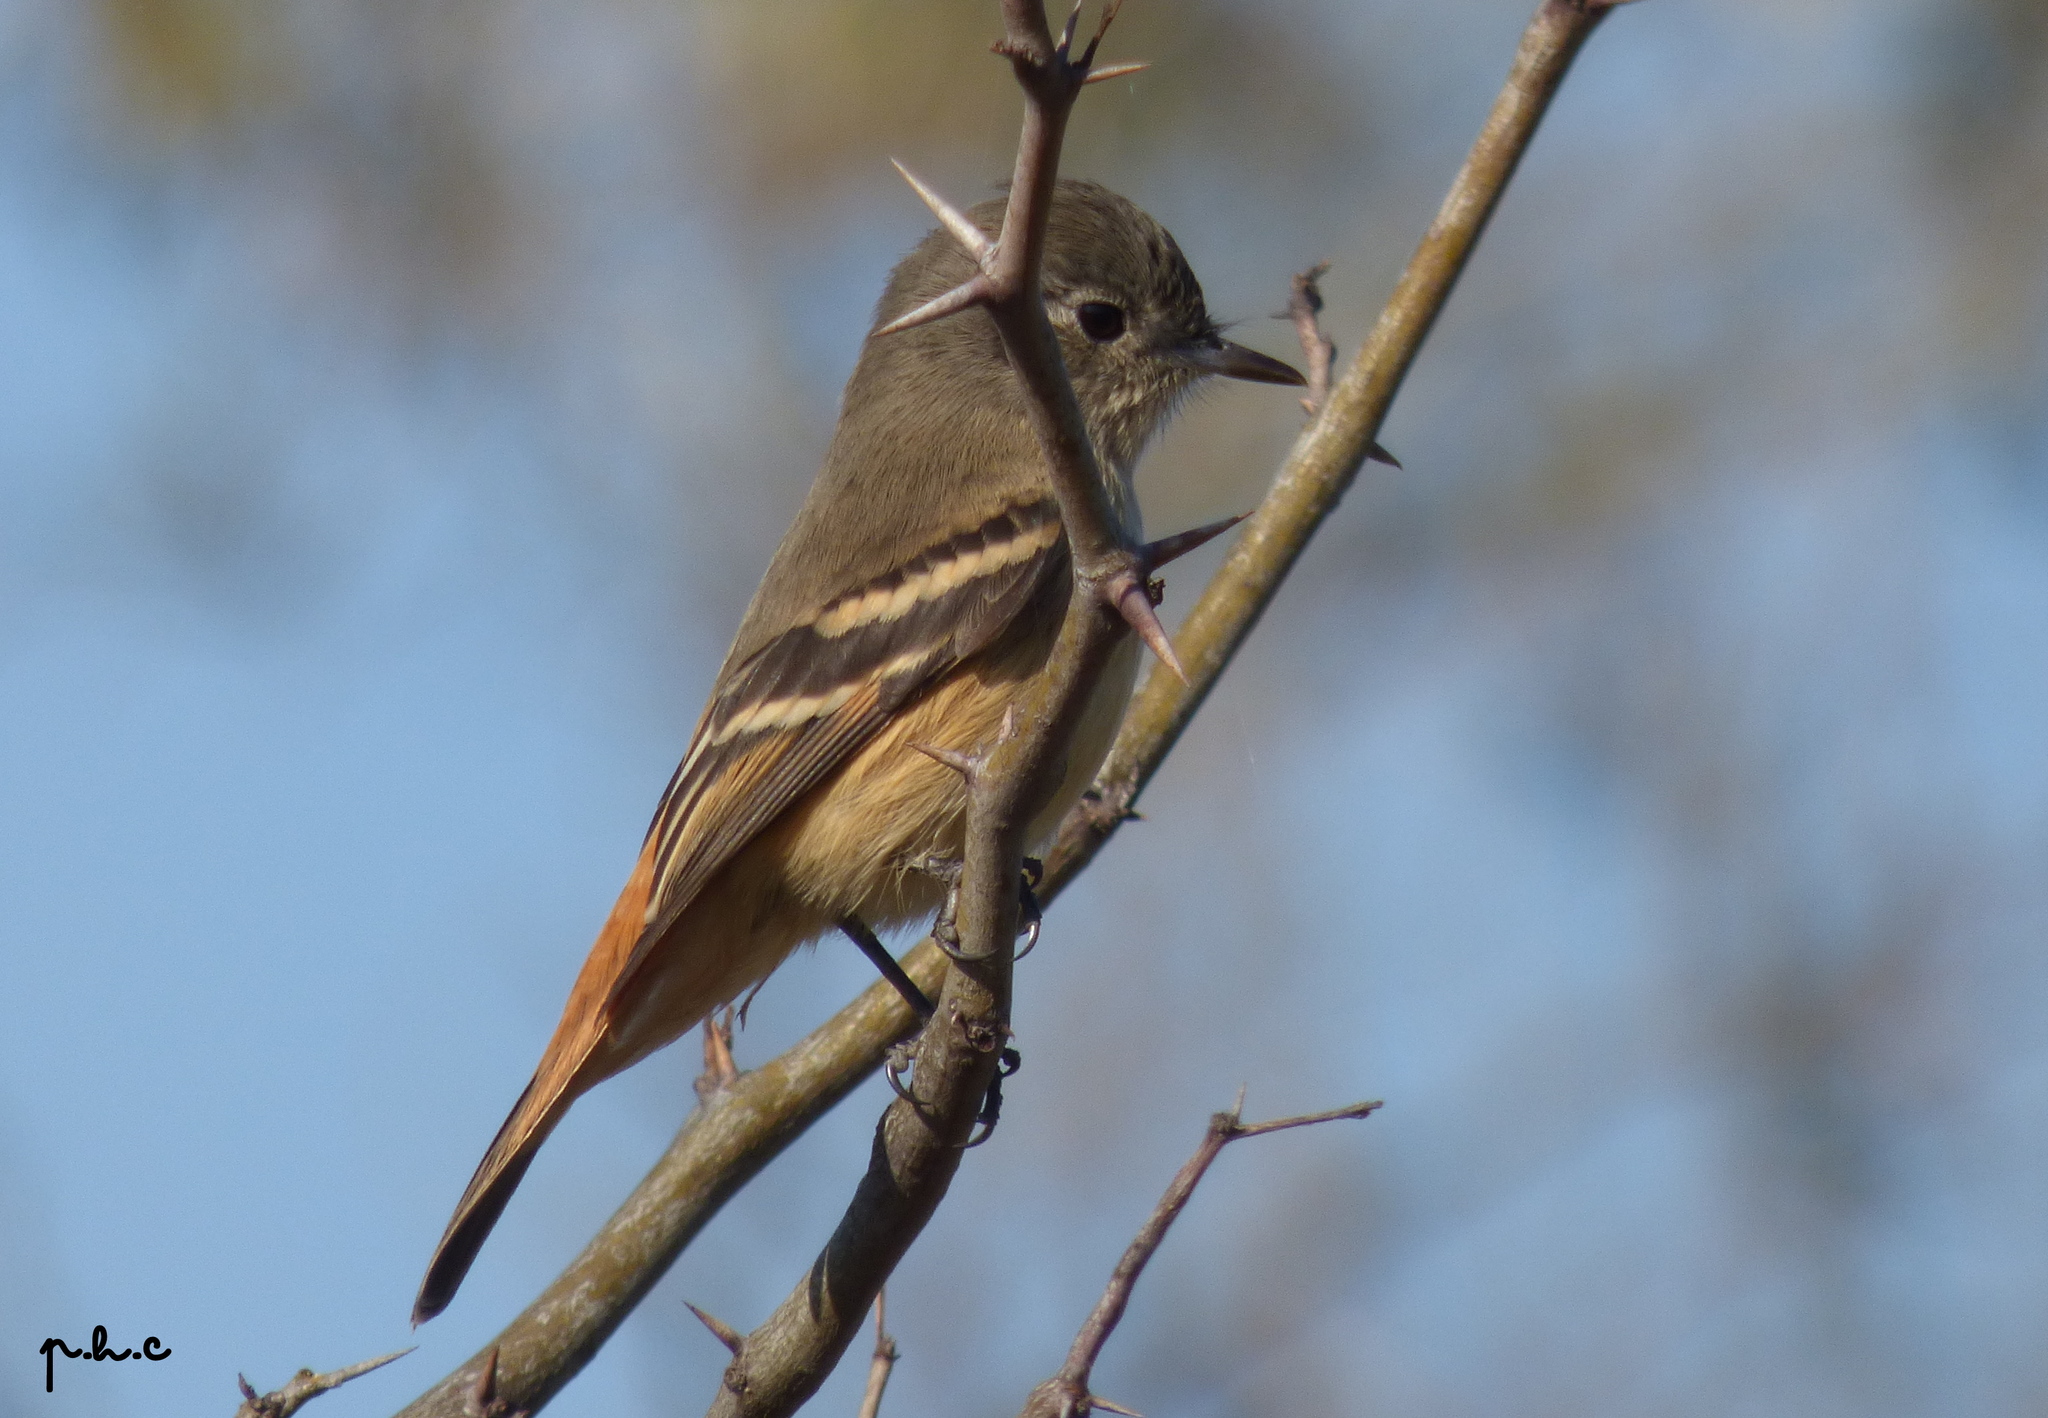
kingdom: Animalia
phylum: Chordata
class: Aves
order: Passeriformes
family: Tyrannidae
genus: Knipolegus
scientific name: Knipolegus aterrimus
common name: White-winged black tyrant
